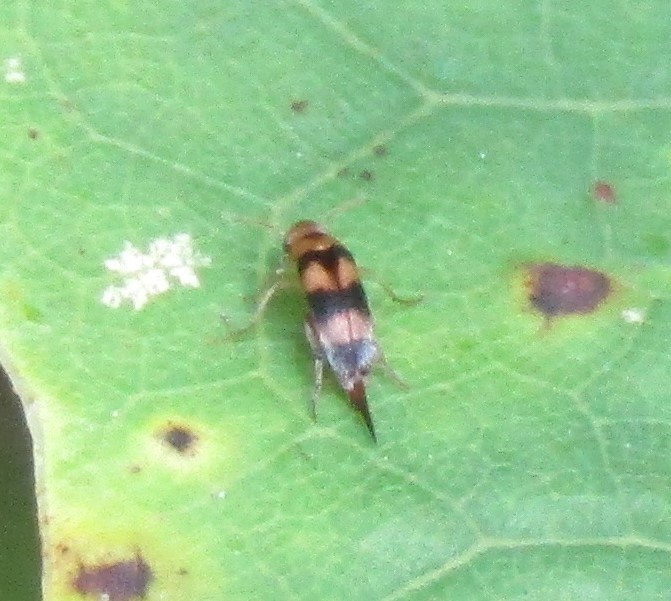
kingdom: Animalia
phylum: Arthropoda
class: Insecta
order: Coleoptera
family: Mordellidae
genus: Mordellistena
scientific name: Mordellistena trifasciata
